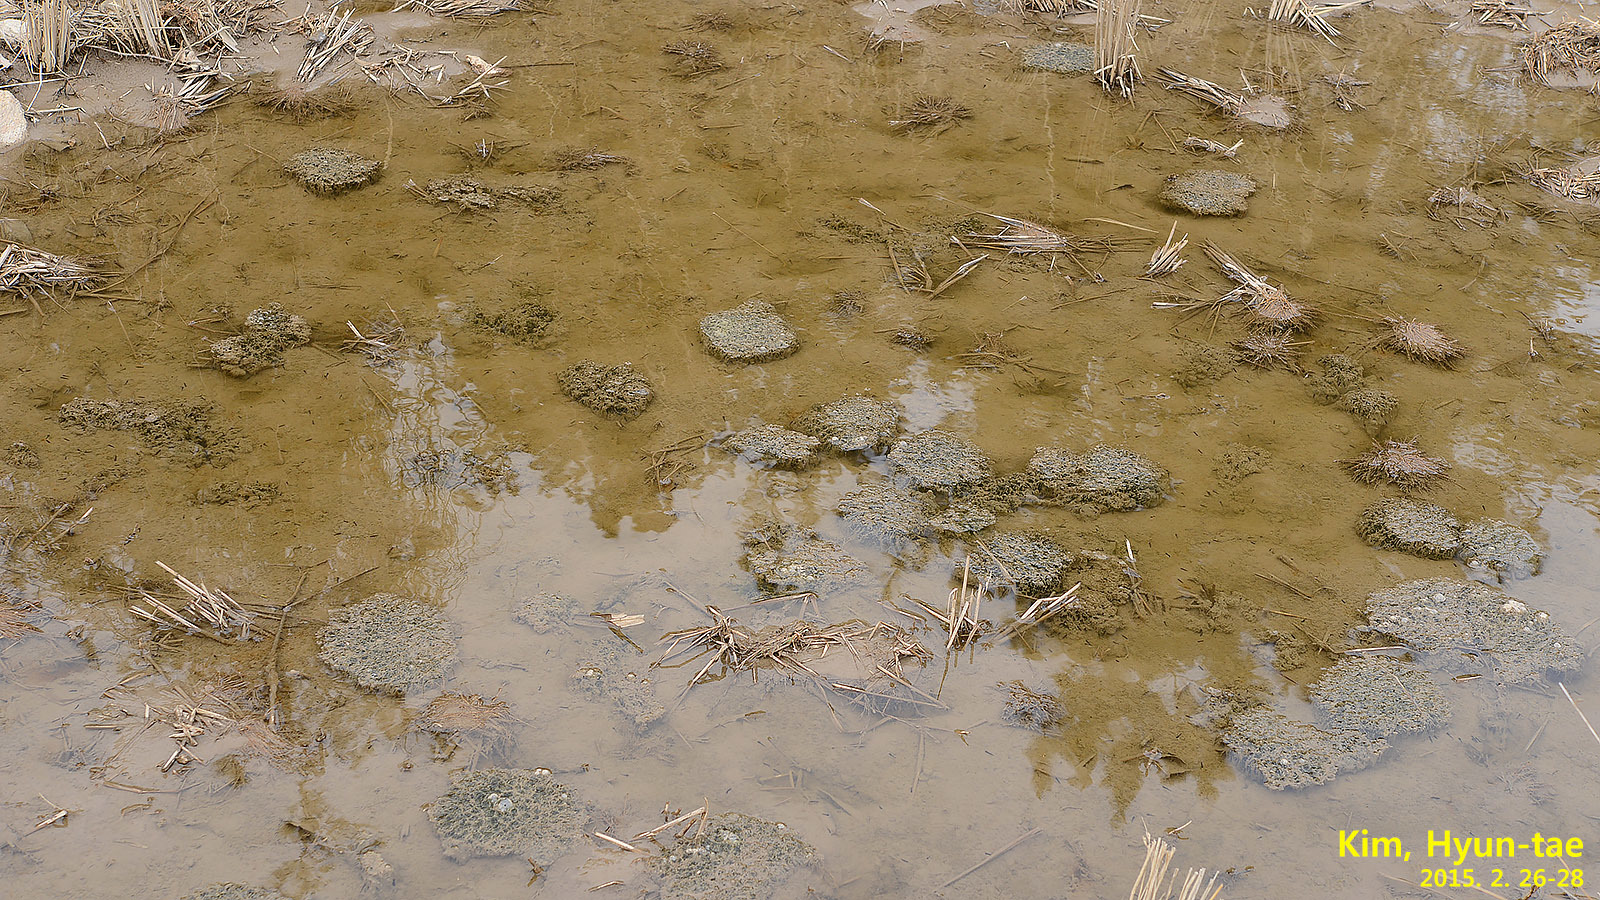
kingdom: Animalia
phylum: Chordata
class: Amphibia
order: Anura
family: Ranidae
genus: Rana
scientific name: Rana uenoi
